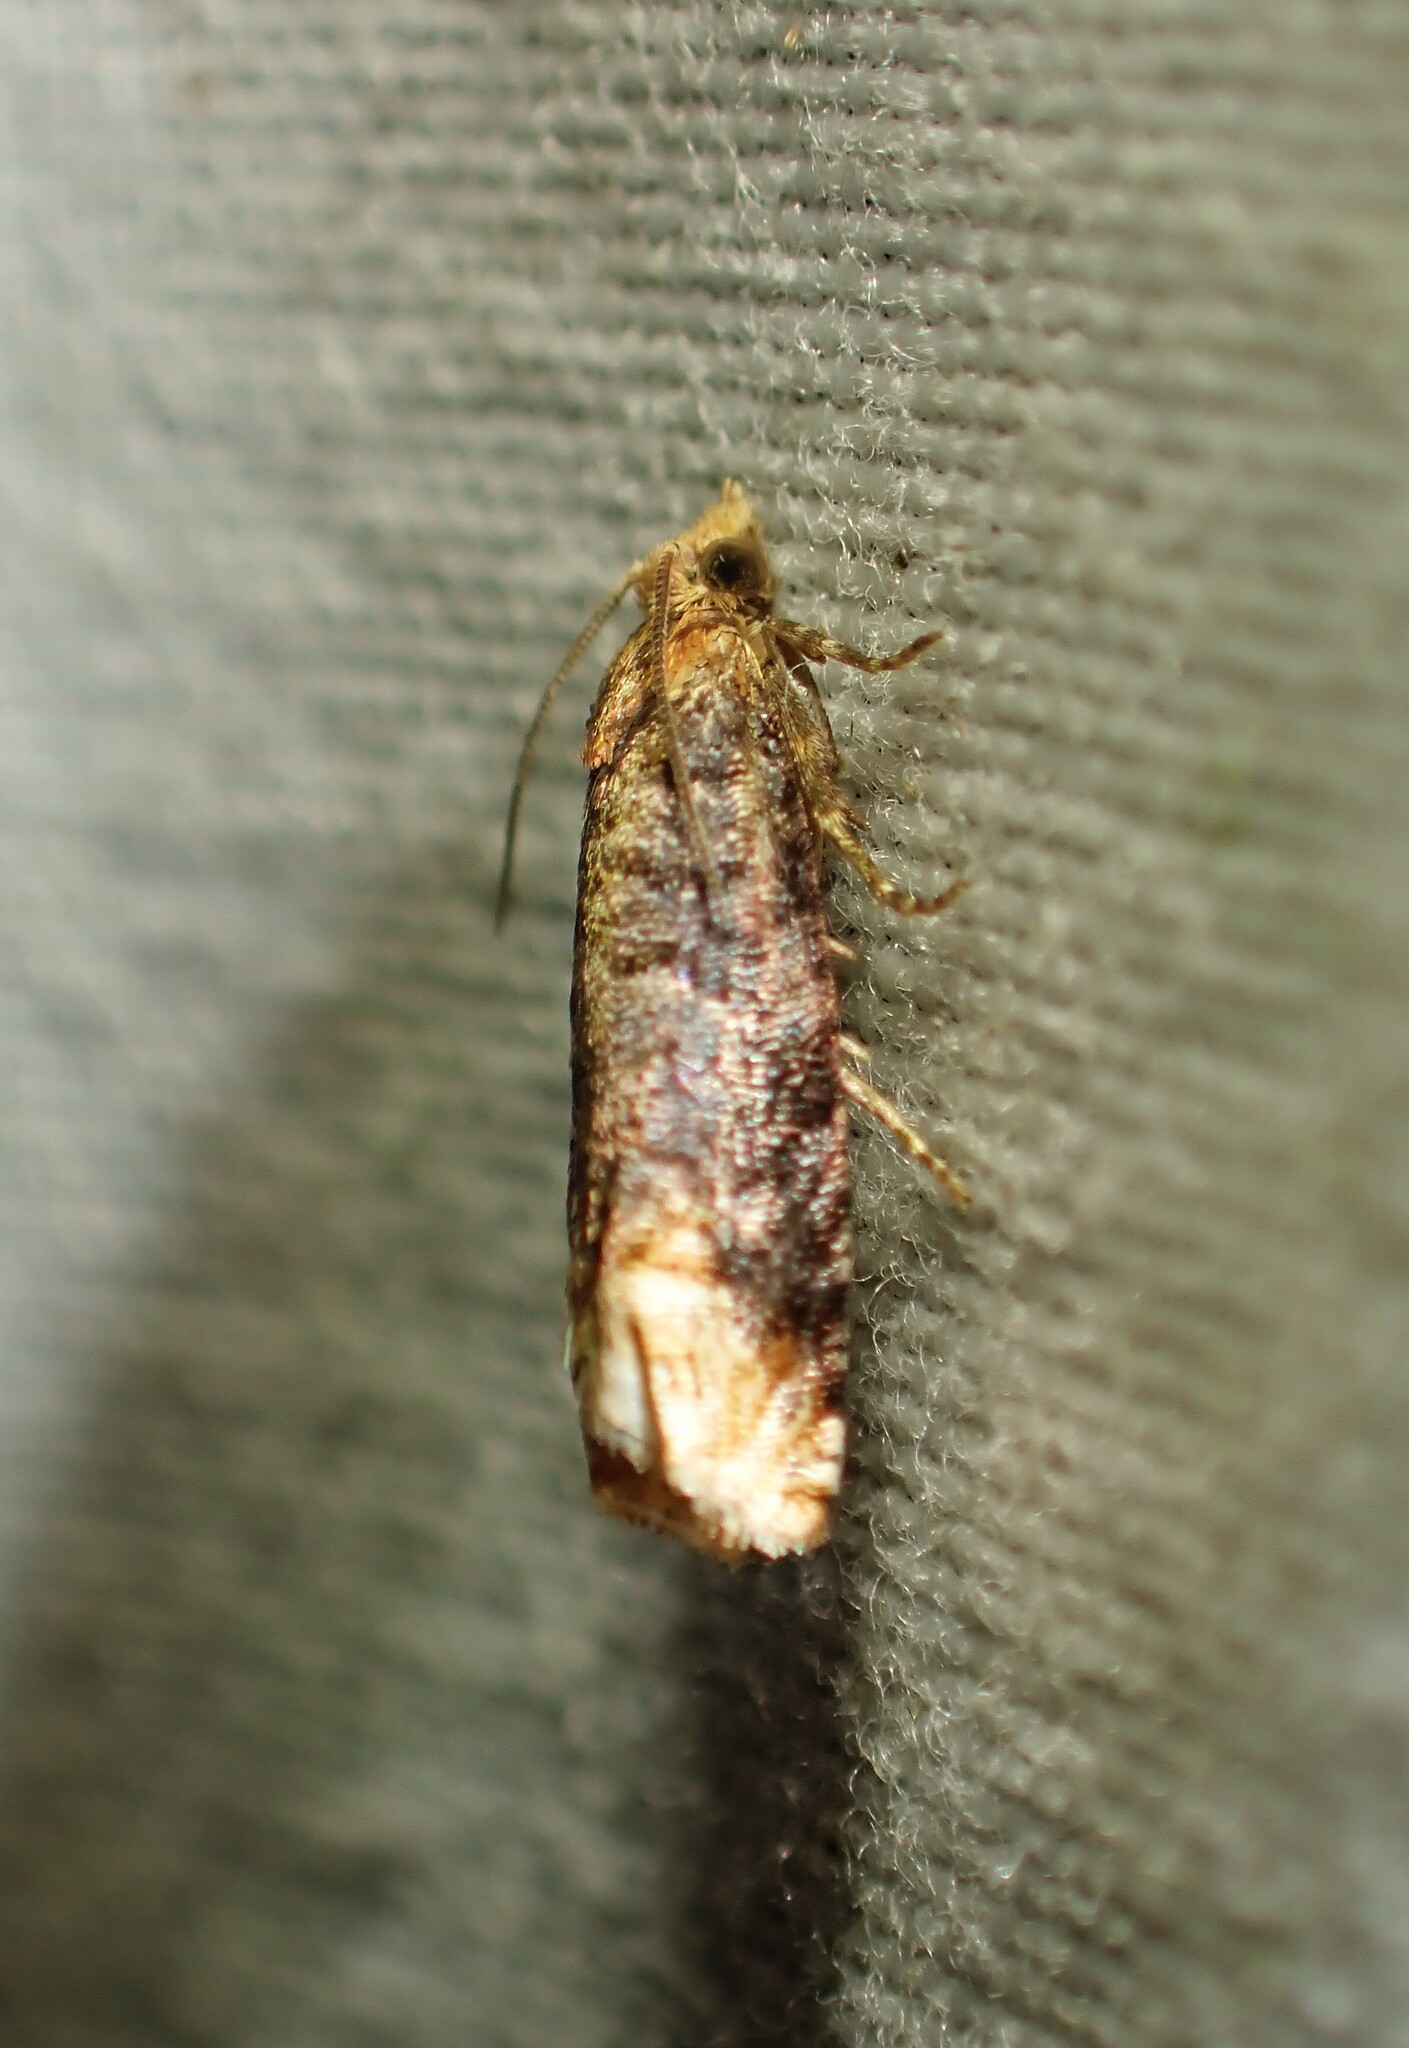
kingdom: Animalia
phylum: Arthropoda
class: Insecta
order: Lepidoptera
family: Tortricidae
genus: Eucosma
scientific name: Eucosma ochroterminana
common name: Buff-tipped eucosma moth
